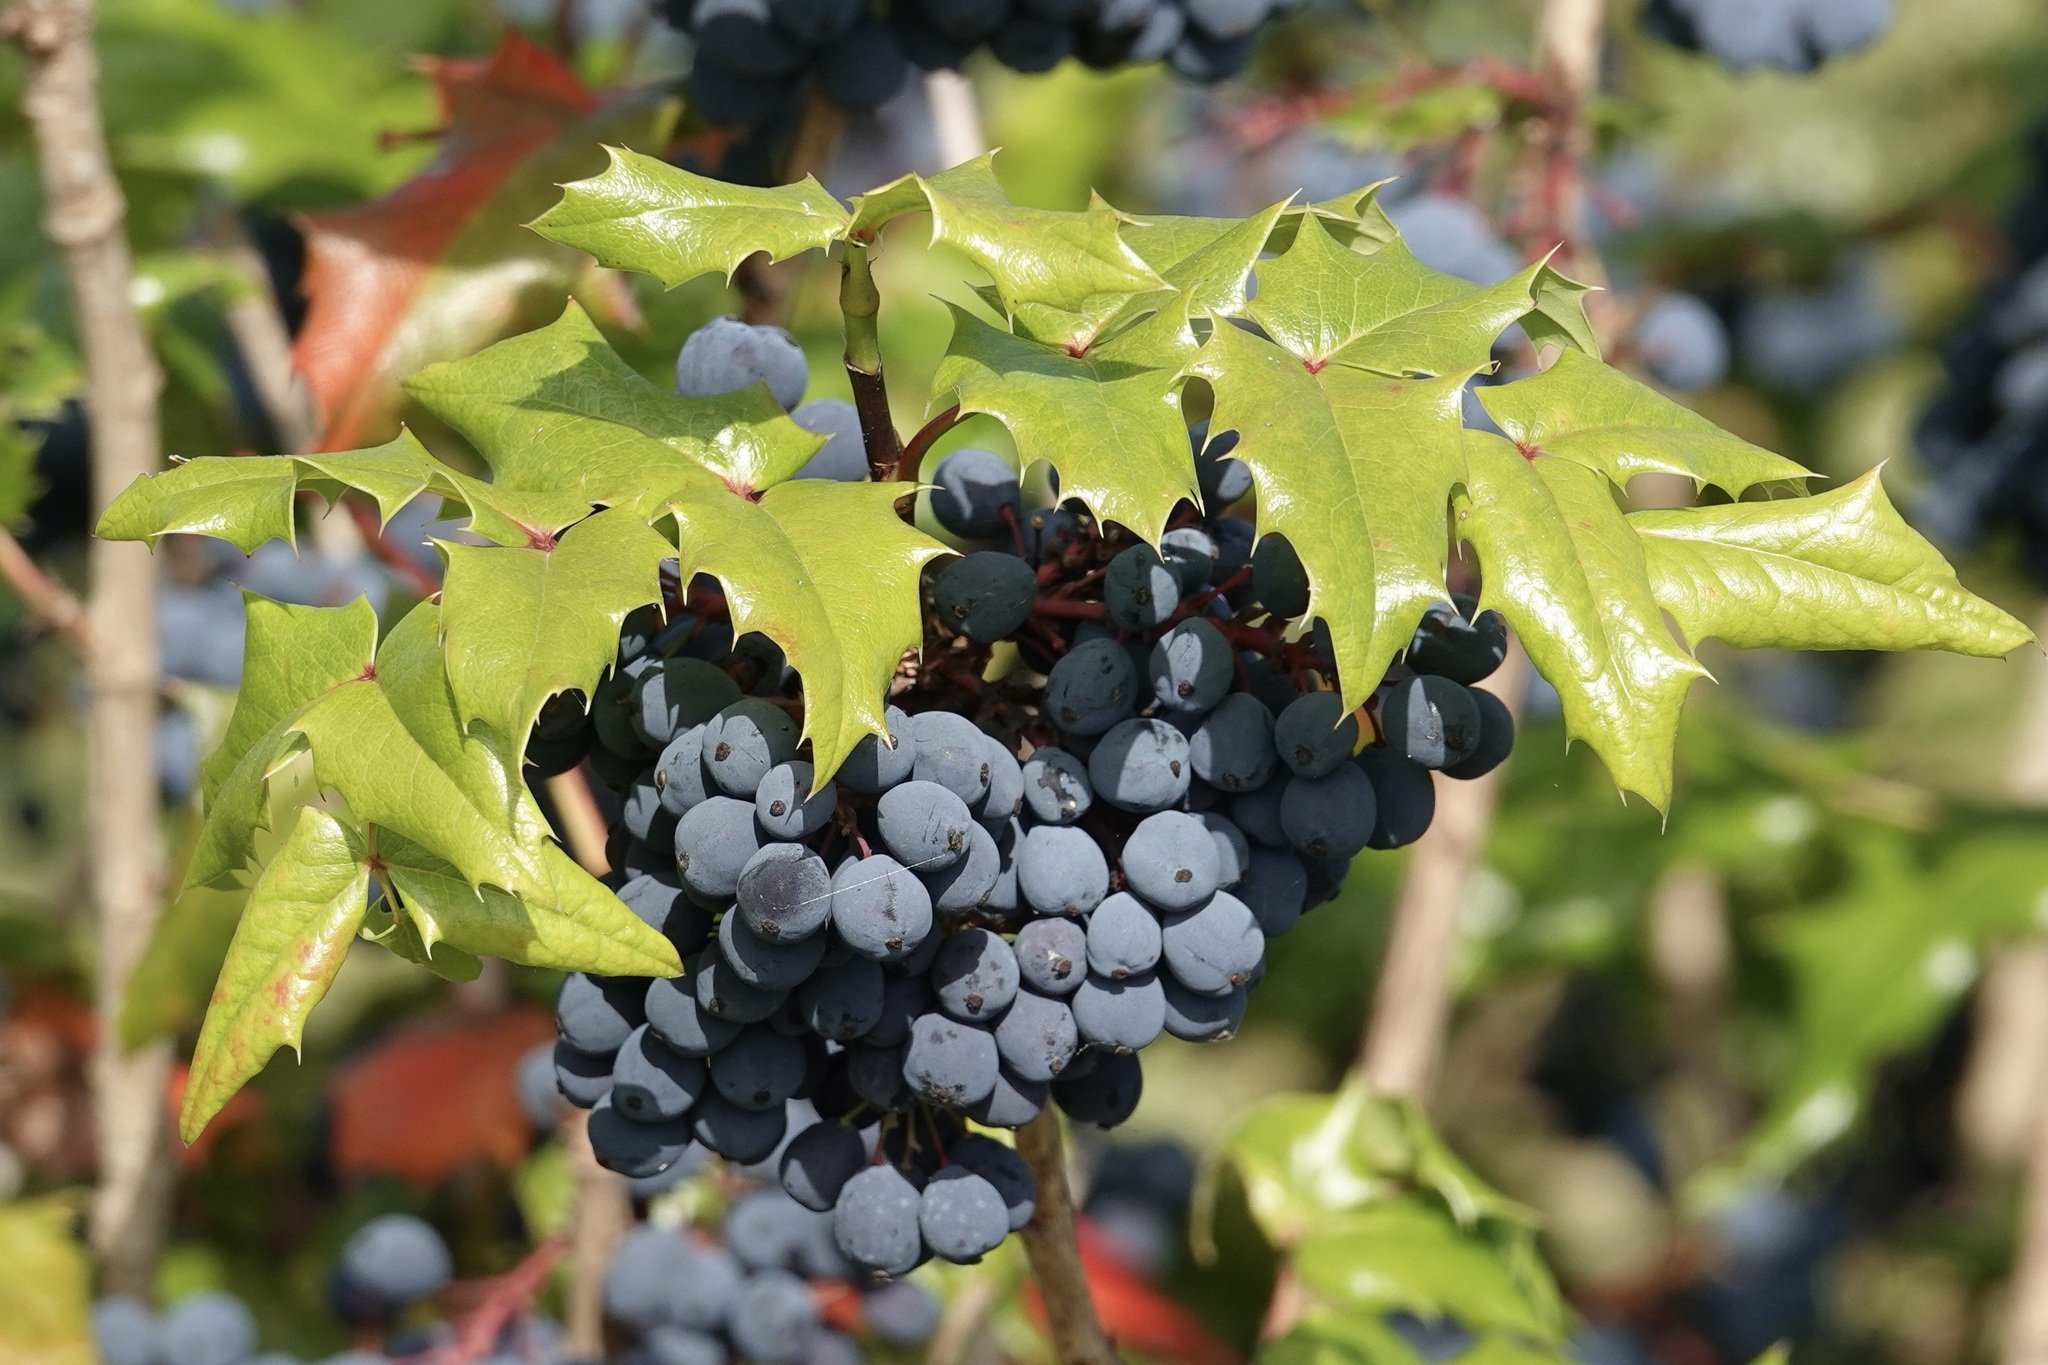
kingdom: Plantae
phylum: Tracheophyta
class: Magnoliopsida
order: Ranunculales
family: Berberidaceae
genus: Mahonia
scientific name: Mahonia aquifolium
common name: Oregon-grape
